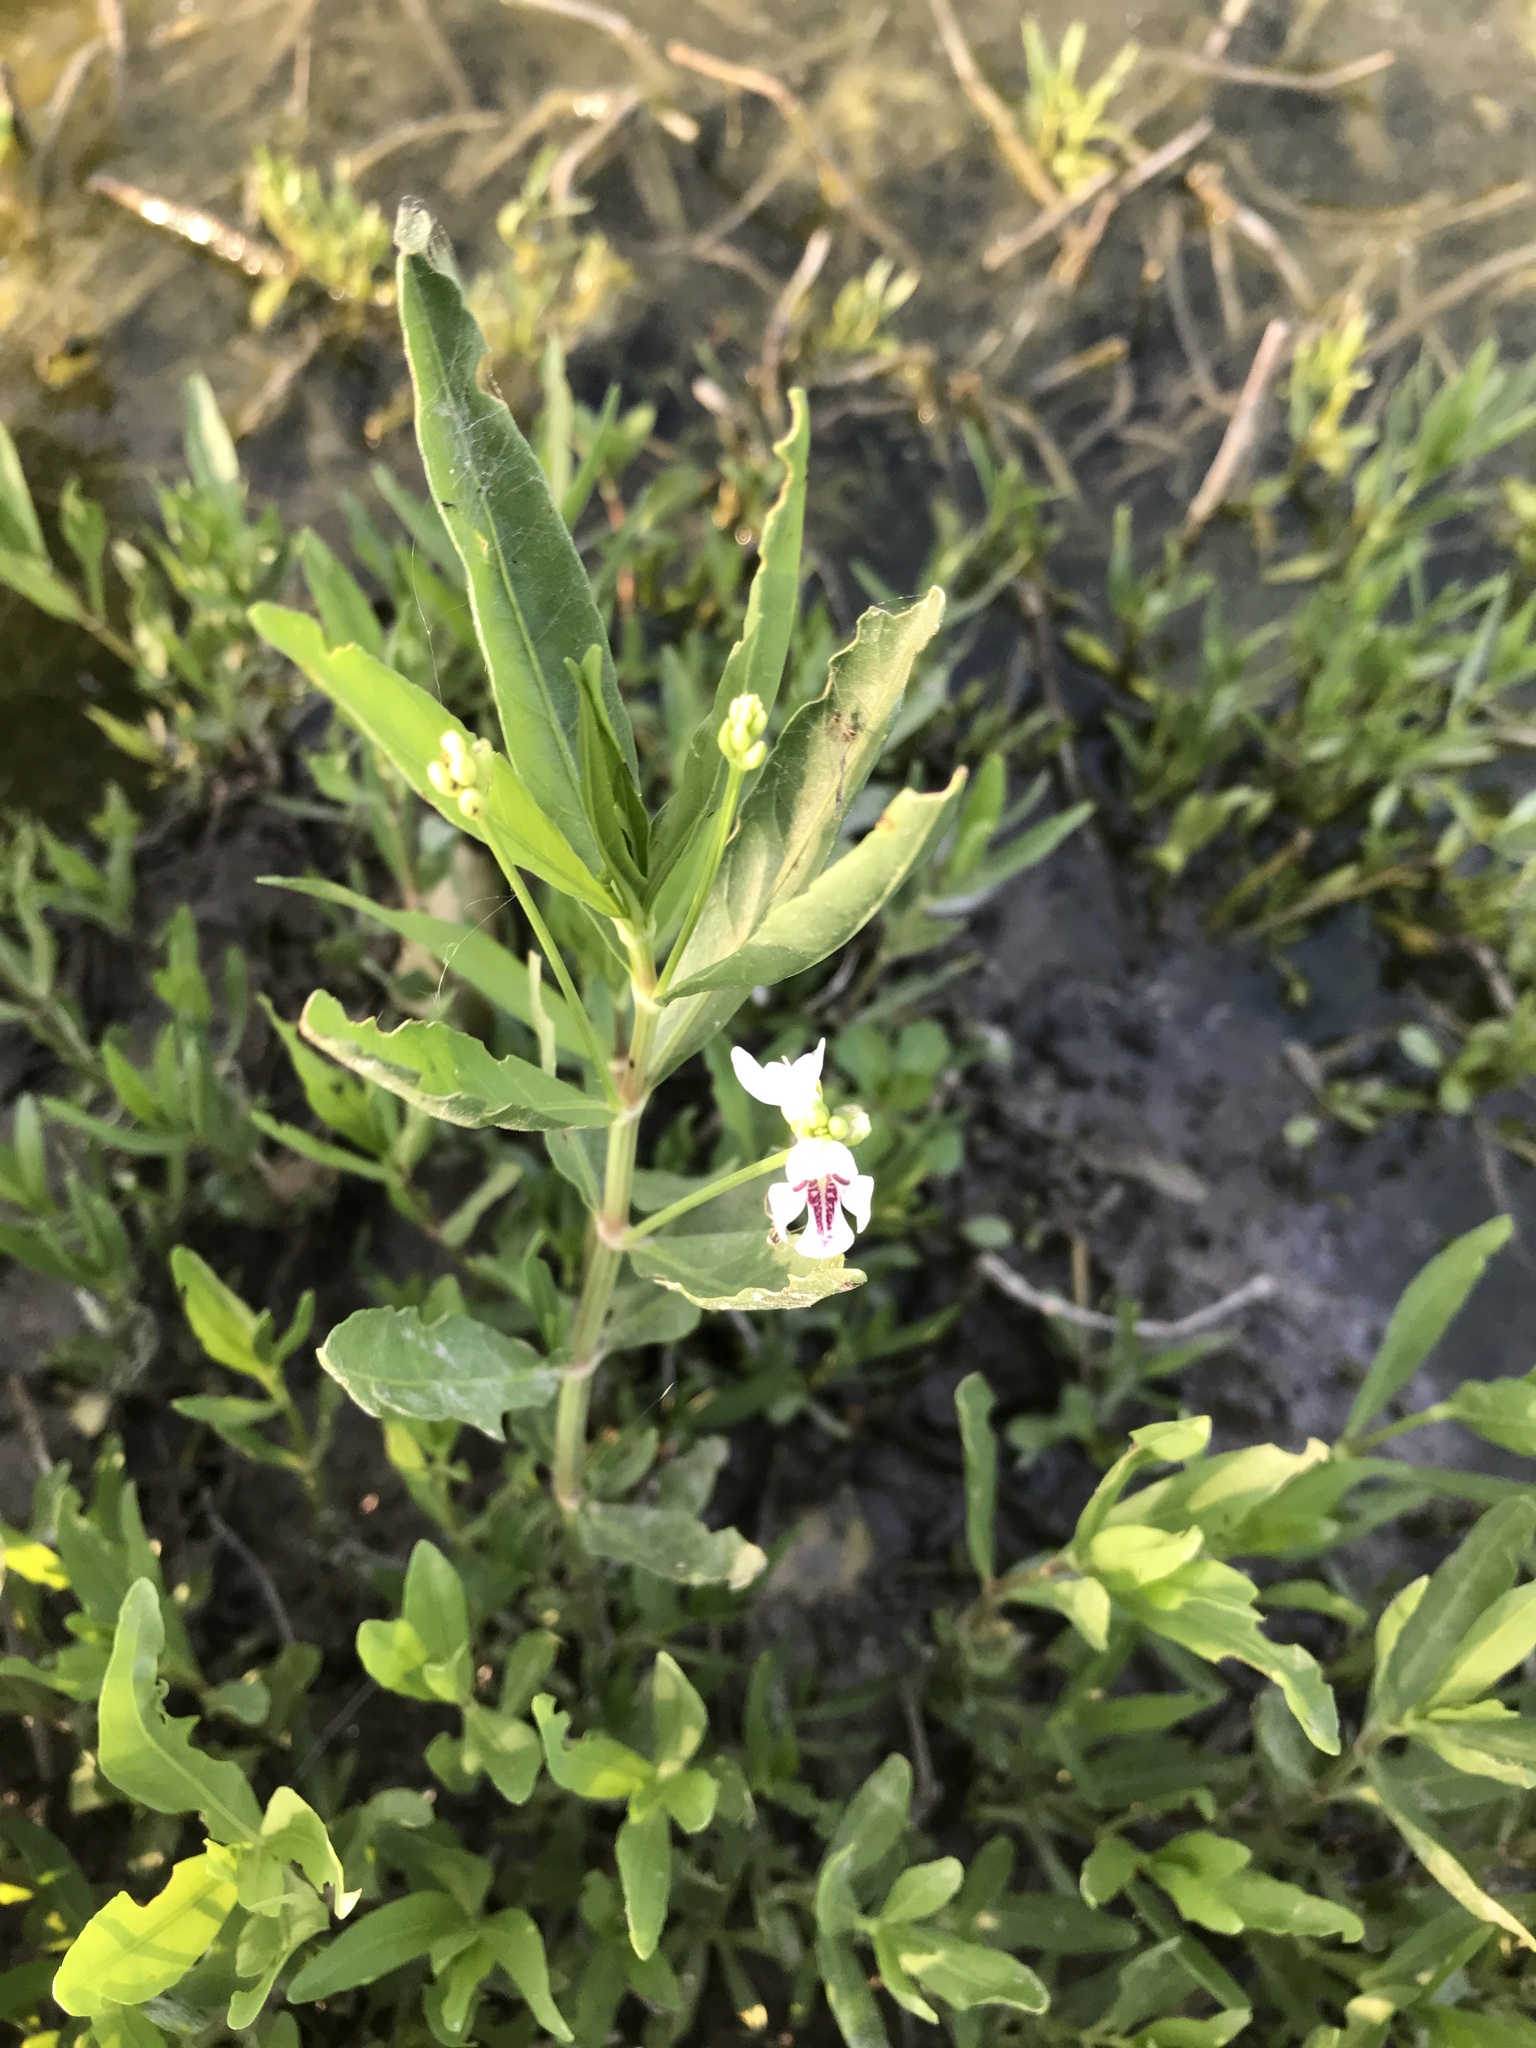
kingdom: Plantae
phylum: Tracheophyta
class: Magnoliopsida
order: Lamiales
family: Acanthaceae
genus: Dianthera
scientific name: Dianthera americana
